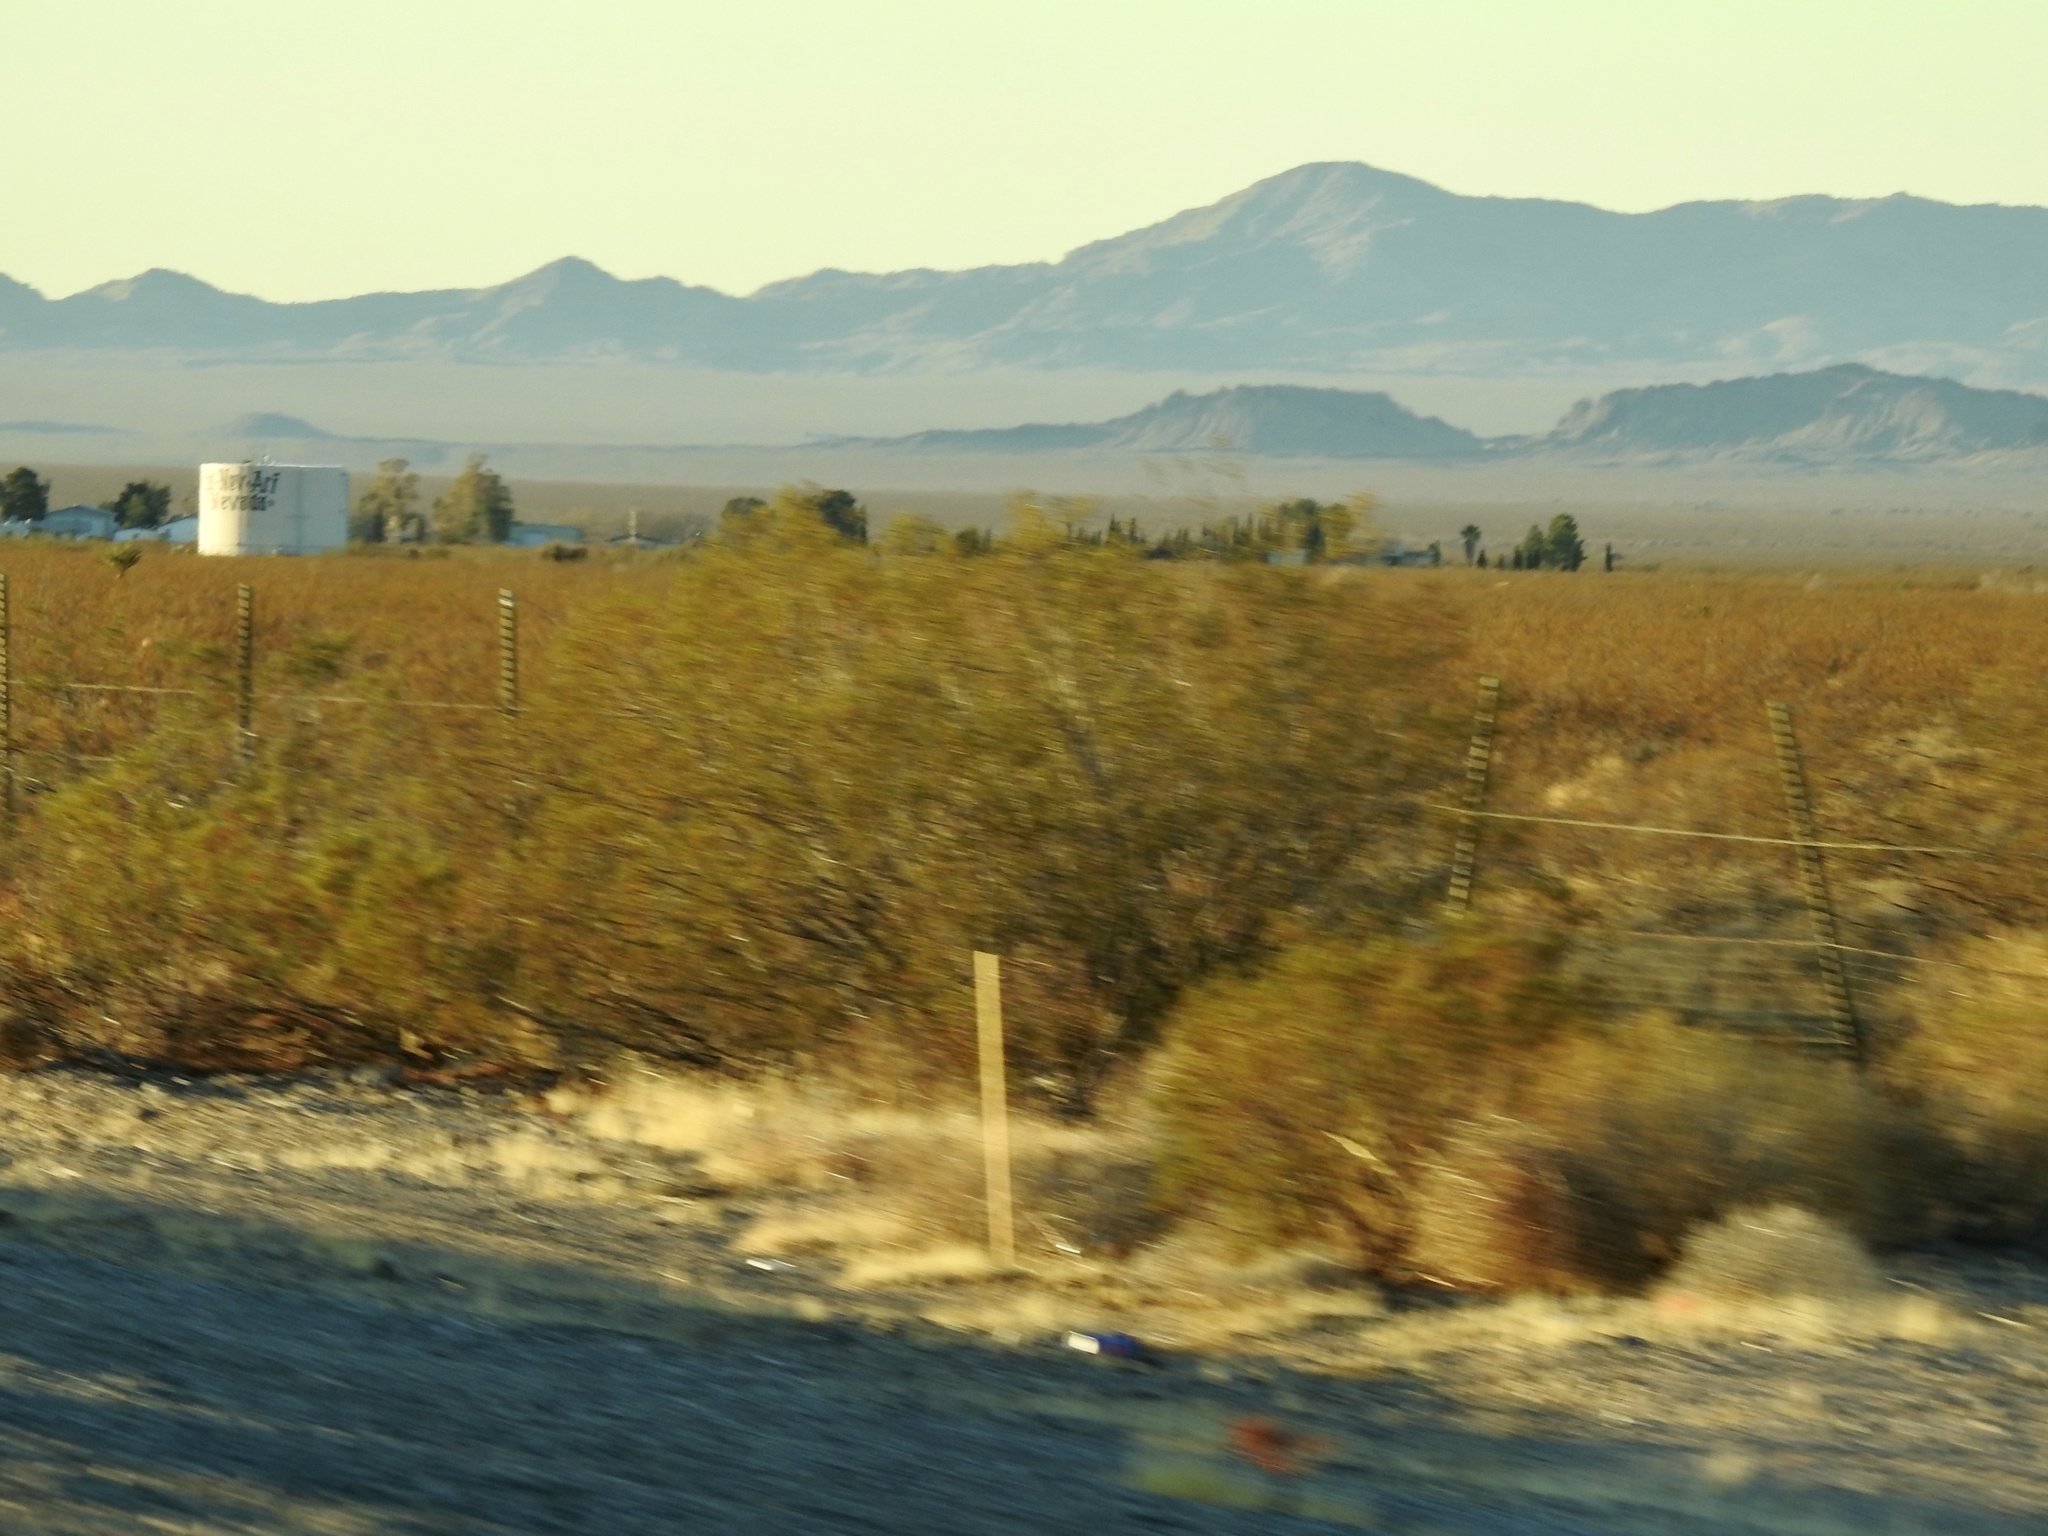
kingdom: Plantae
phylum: Tracheophyta
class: Magnoliopsida
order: Zygophyllales
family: Zygophyllaceae
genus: Larrea
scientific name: Larrea tridentata
